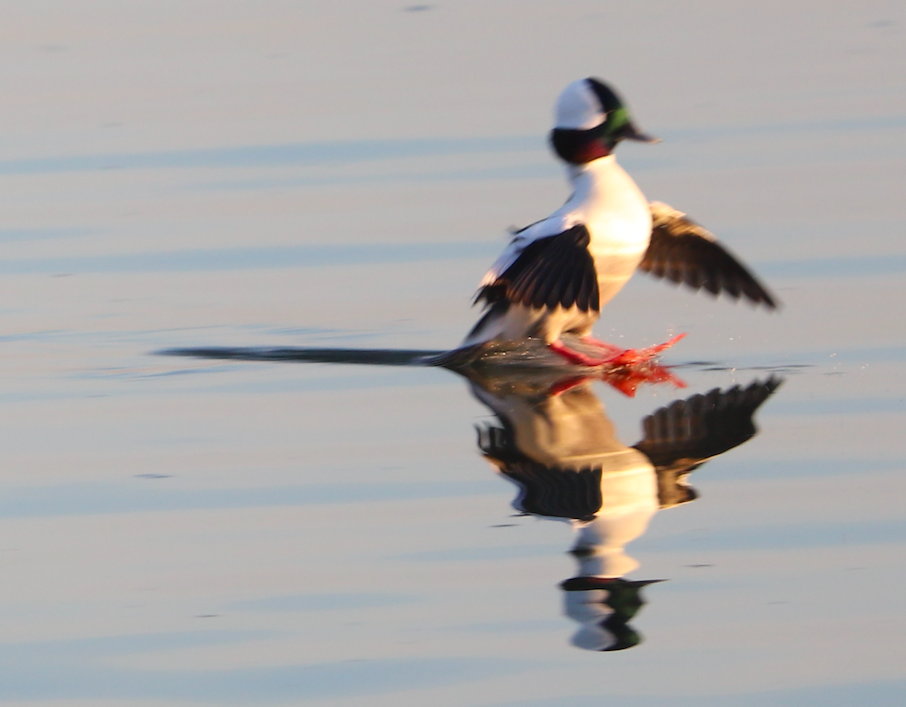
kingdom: Animalia
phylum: Chordata
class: Aves
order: Anseriformes
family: Anatidae
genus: Bucephala
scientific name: Bucephala albeola
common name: Bufflehead
